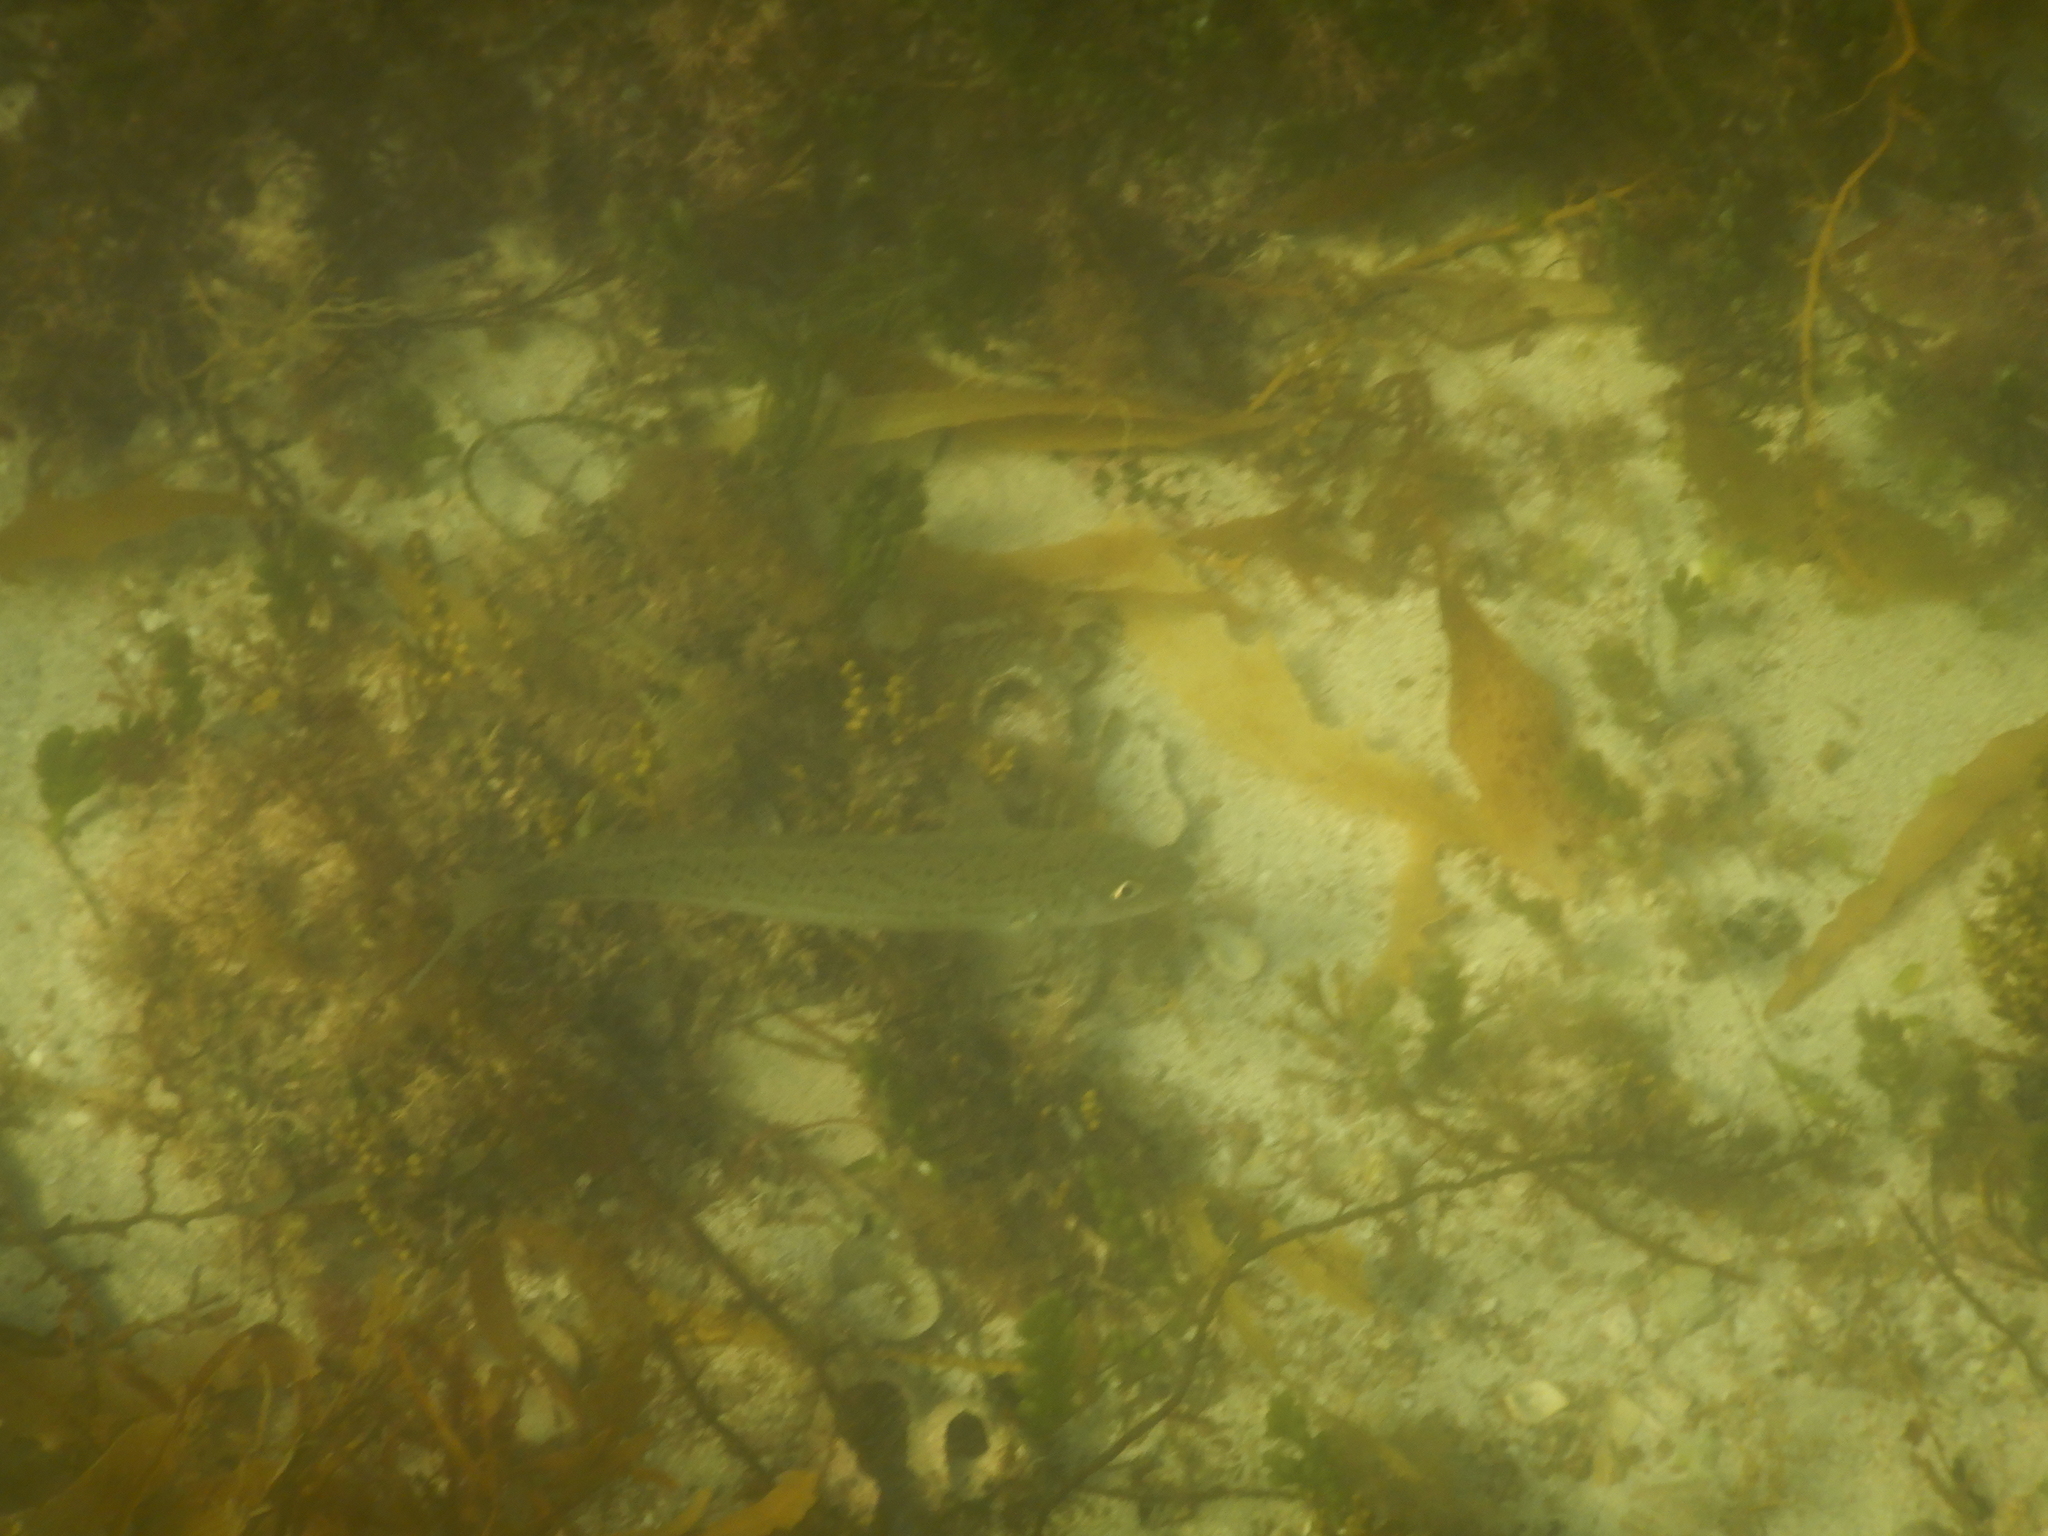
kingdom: Animalia
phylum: Chordata
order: Perciformes
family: Sillaginidae
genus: Sillaginodes
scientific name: Sillaginodes punctatus
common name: King george whiting
